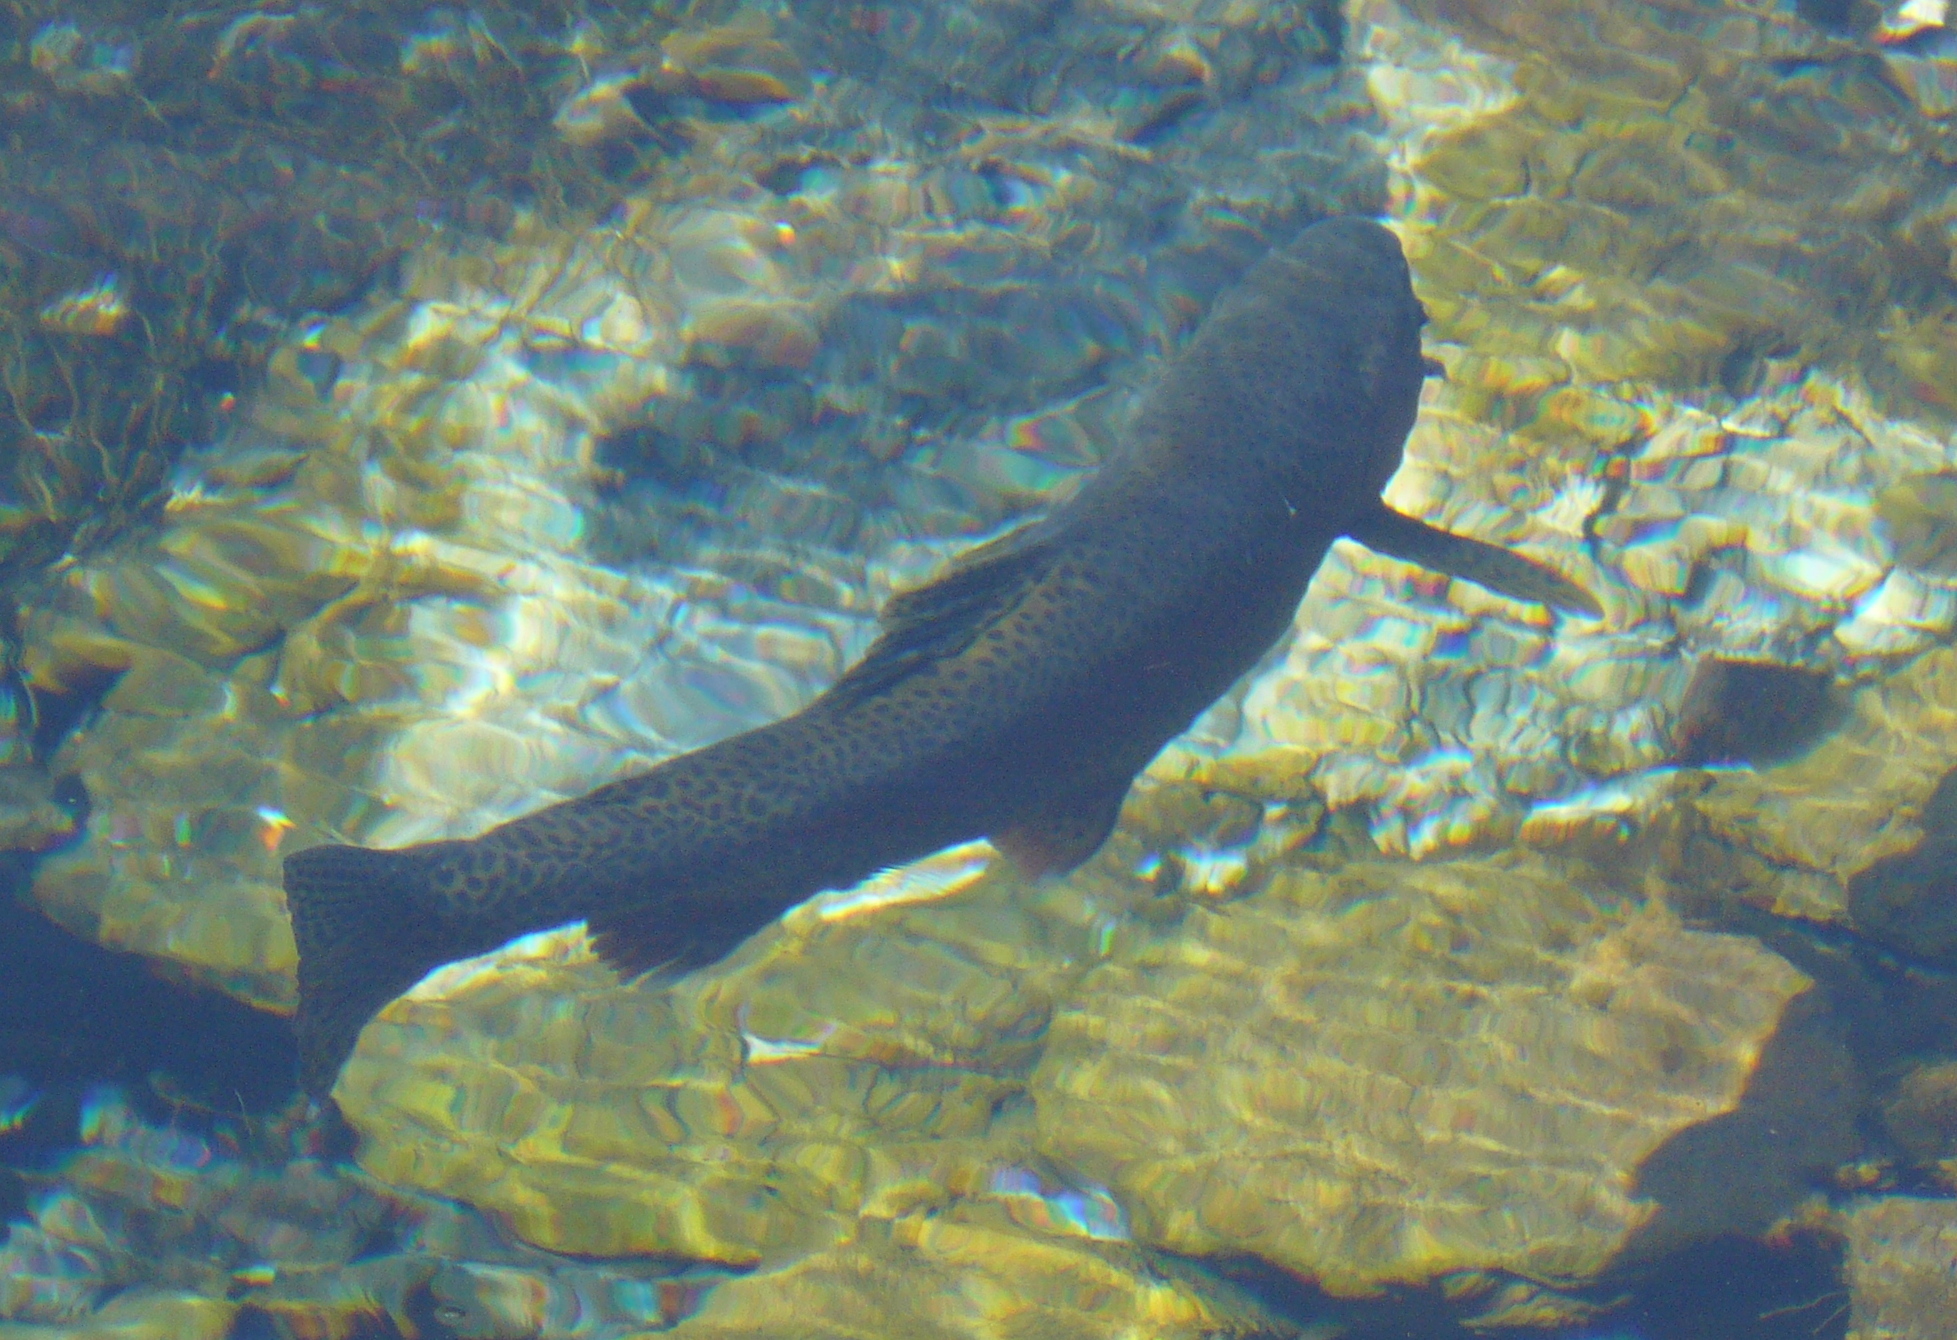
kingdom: Animalia
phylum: Chordata
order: Salmoniformes
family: Salmonidae
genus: Oncorhynchus
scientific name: Oncorhynchus mykiss
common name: Rainbow trout
